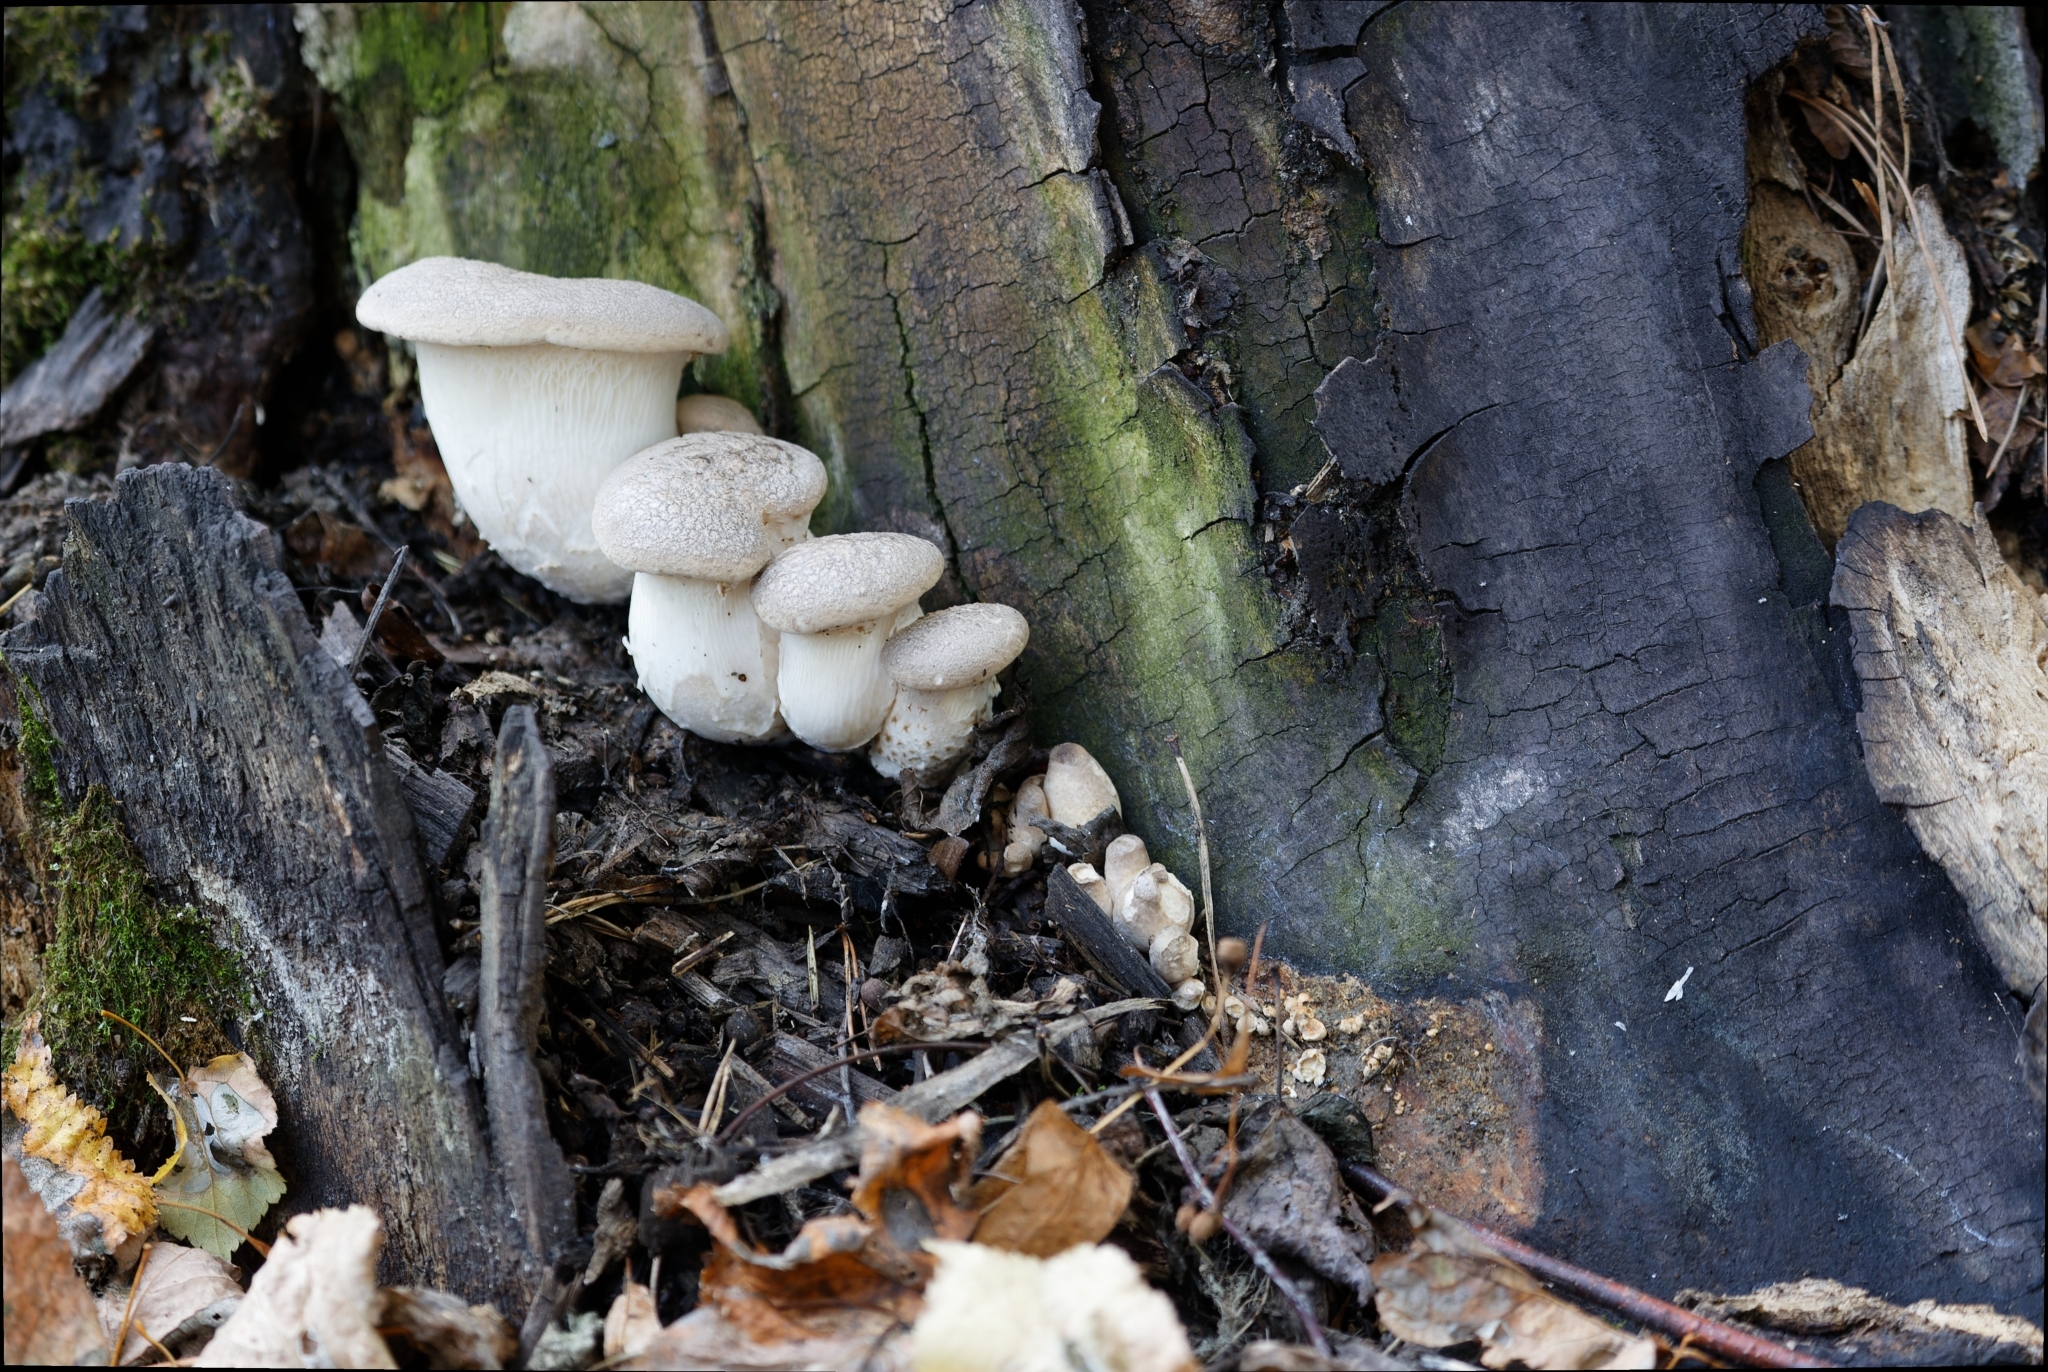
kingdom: Fungi
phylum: Basidiomycota
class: Agaricomycetes
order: Agaricales
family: Pleurotaceae
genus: Pleurotus
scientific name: Pleurotus dryinus
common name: Veiled oyster
